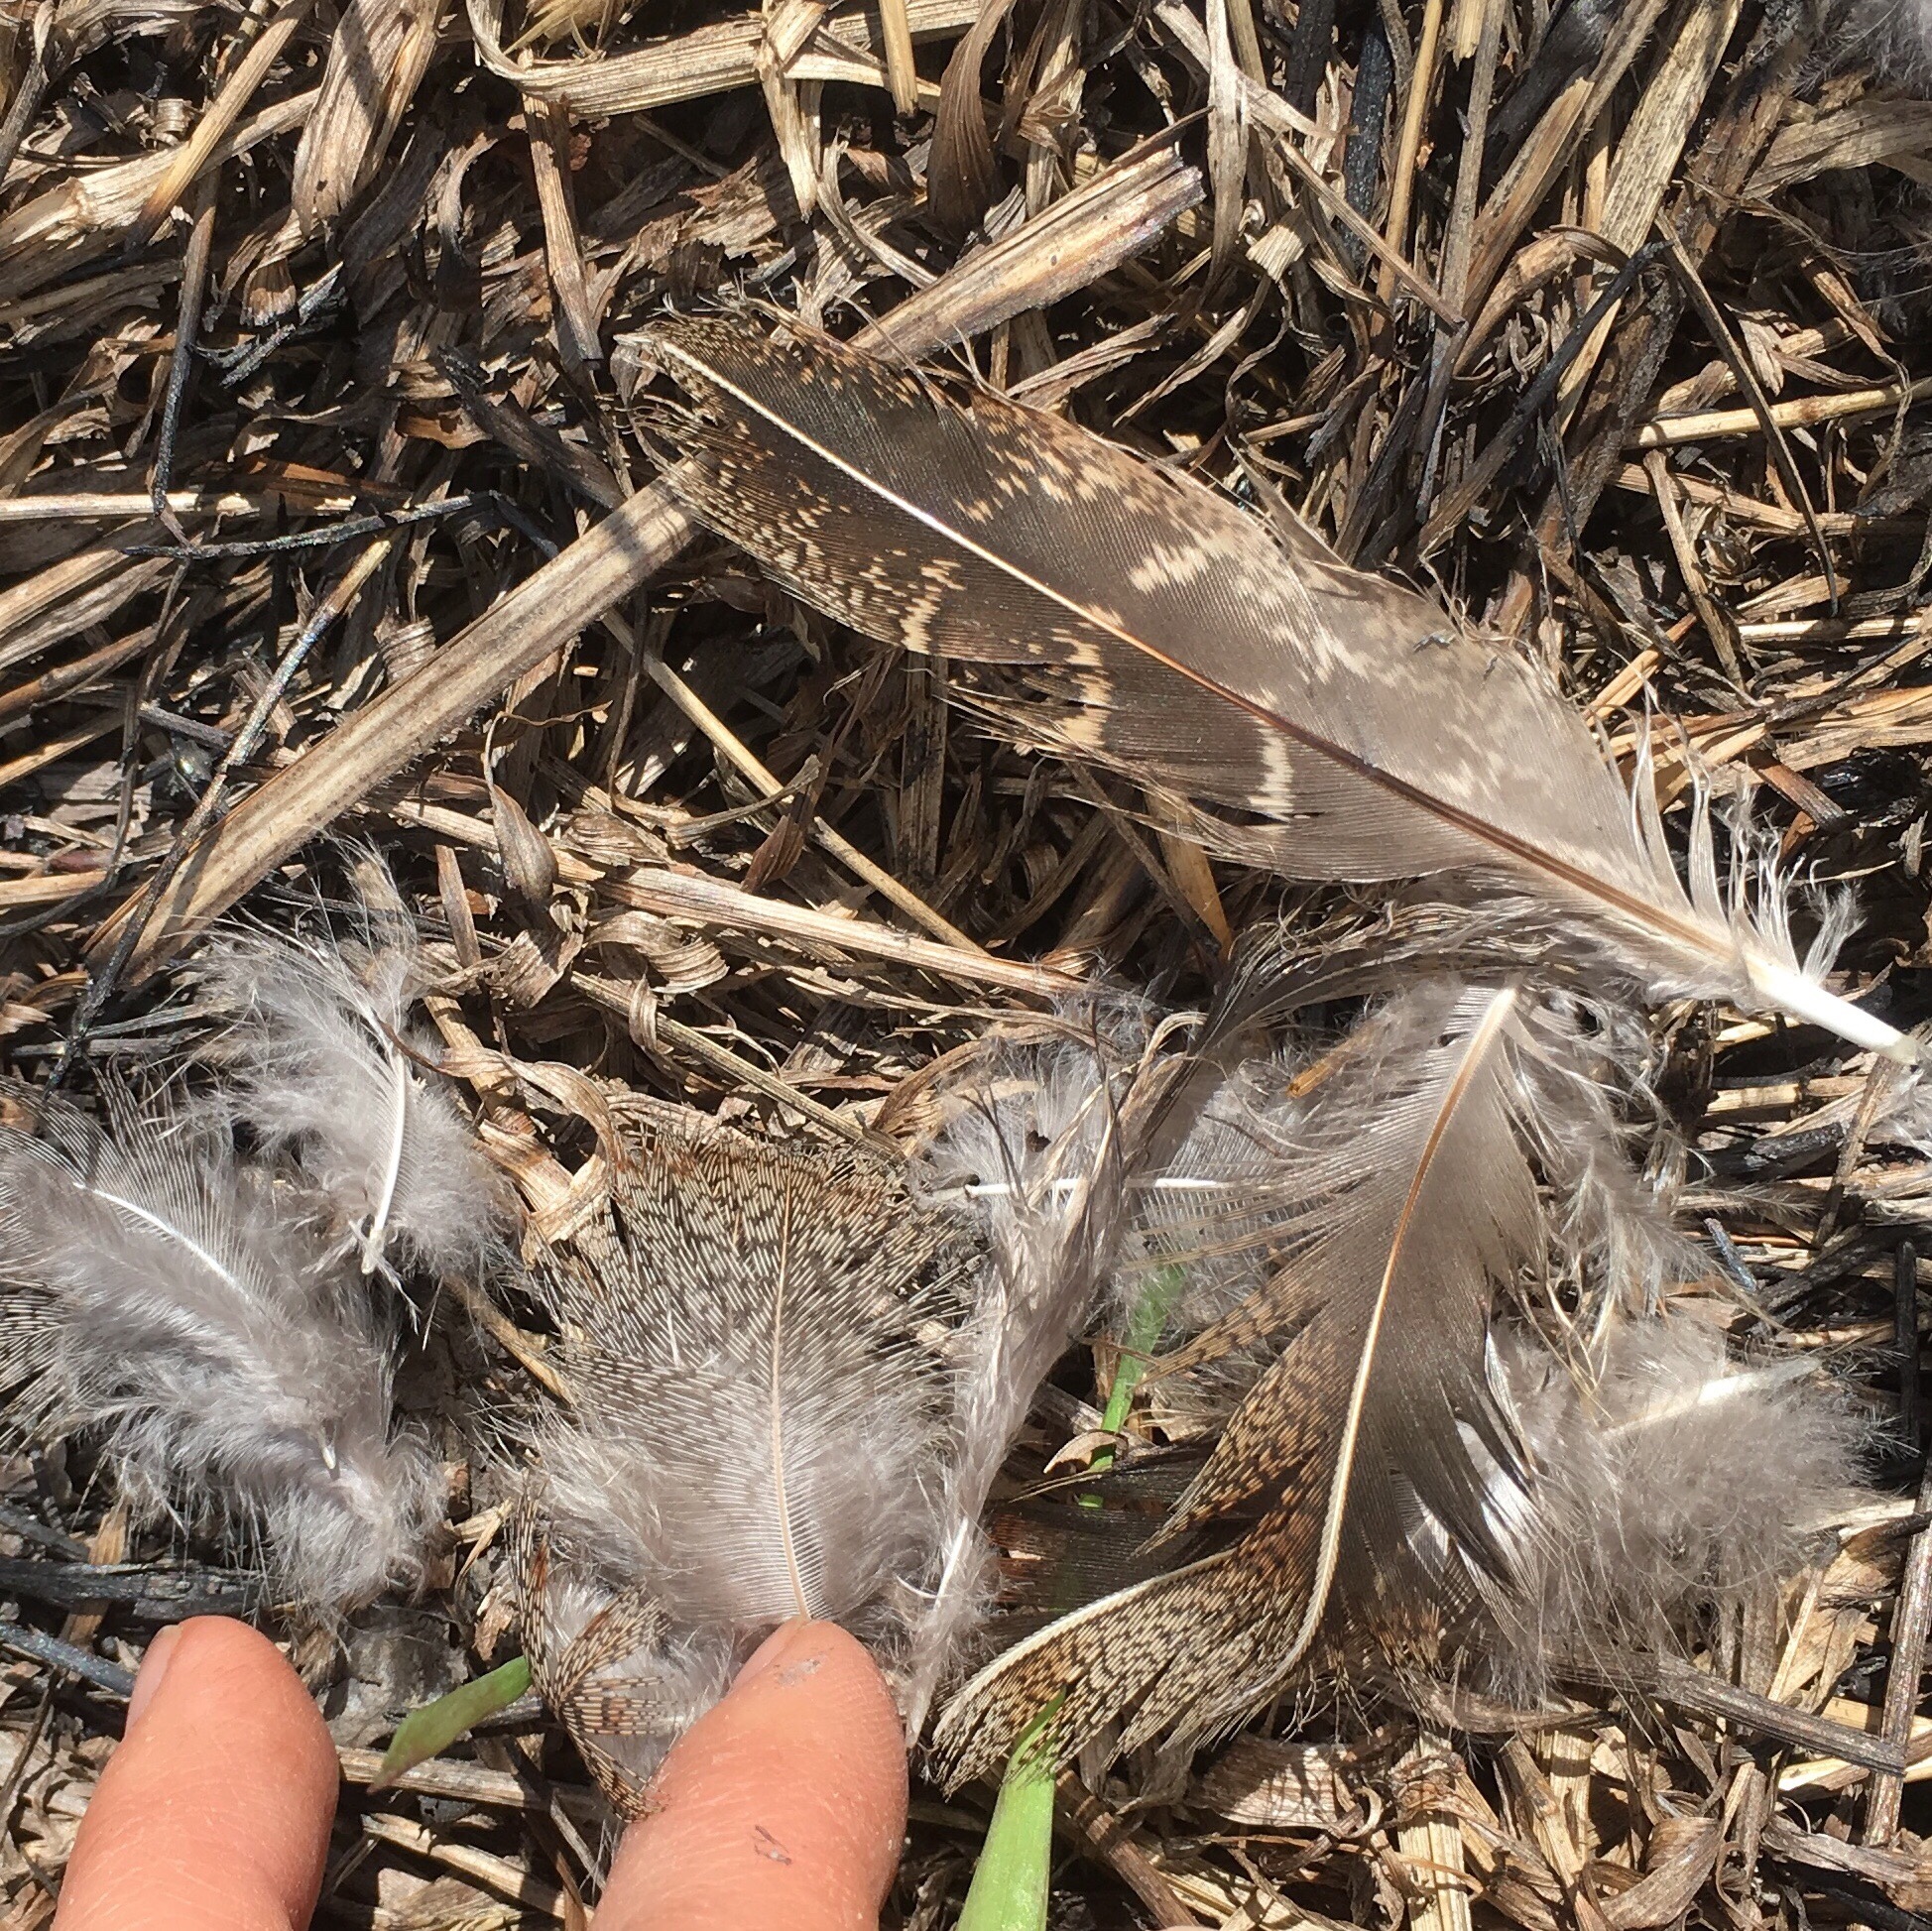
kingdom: Animalia
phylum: Chordata
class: Aves
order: Galliformes
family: Phasianidae
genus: Perdix
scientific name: Perdix perdix
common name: Grey partridge
